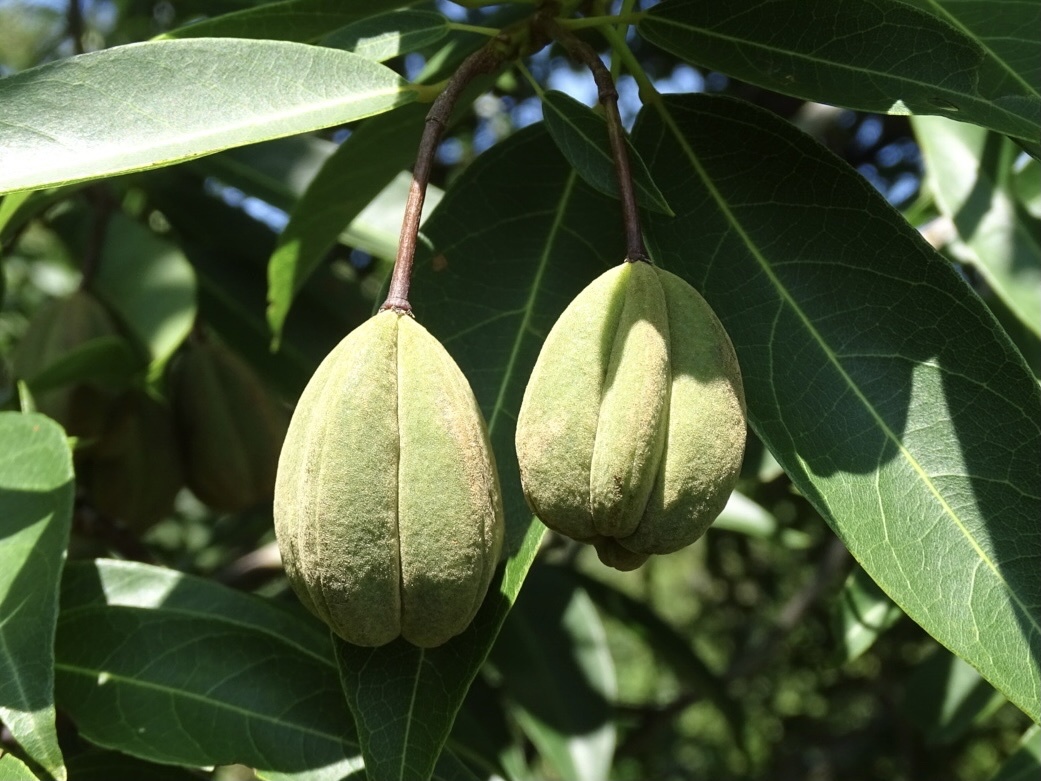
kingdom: Plantae
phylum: Tracheophyta
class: Magnoliopsida
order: Malvales
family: Malvaceae
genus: Reevesia
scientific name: Reevesia thyrsoidea
